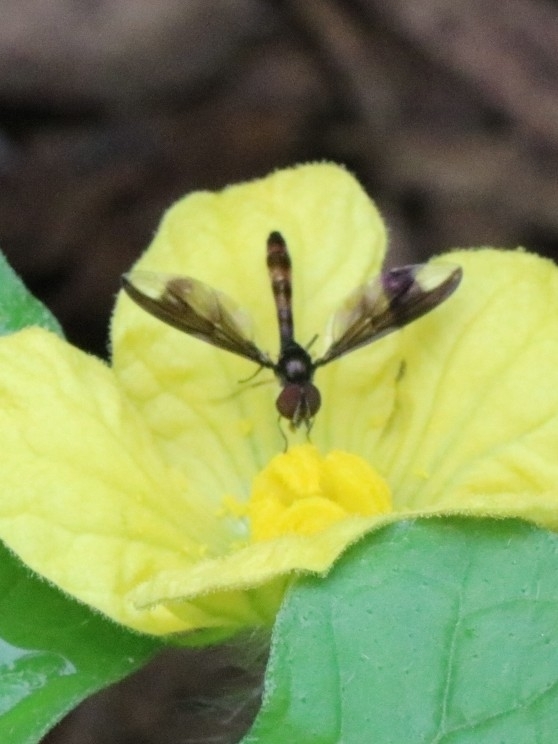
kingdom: Animalia
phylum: Arthropoda
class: Insecta
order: Diptera
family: Syrphidae
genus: Ocyptamus
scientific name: Ocyptamus fuscipennis
